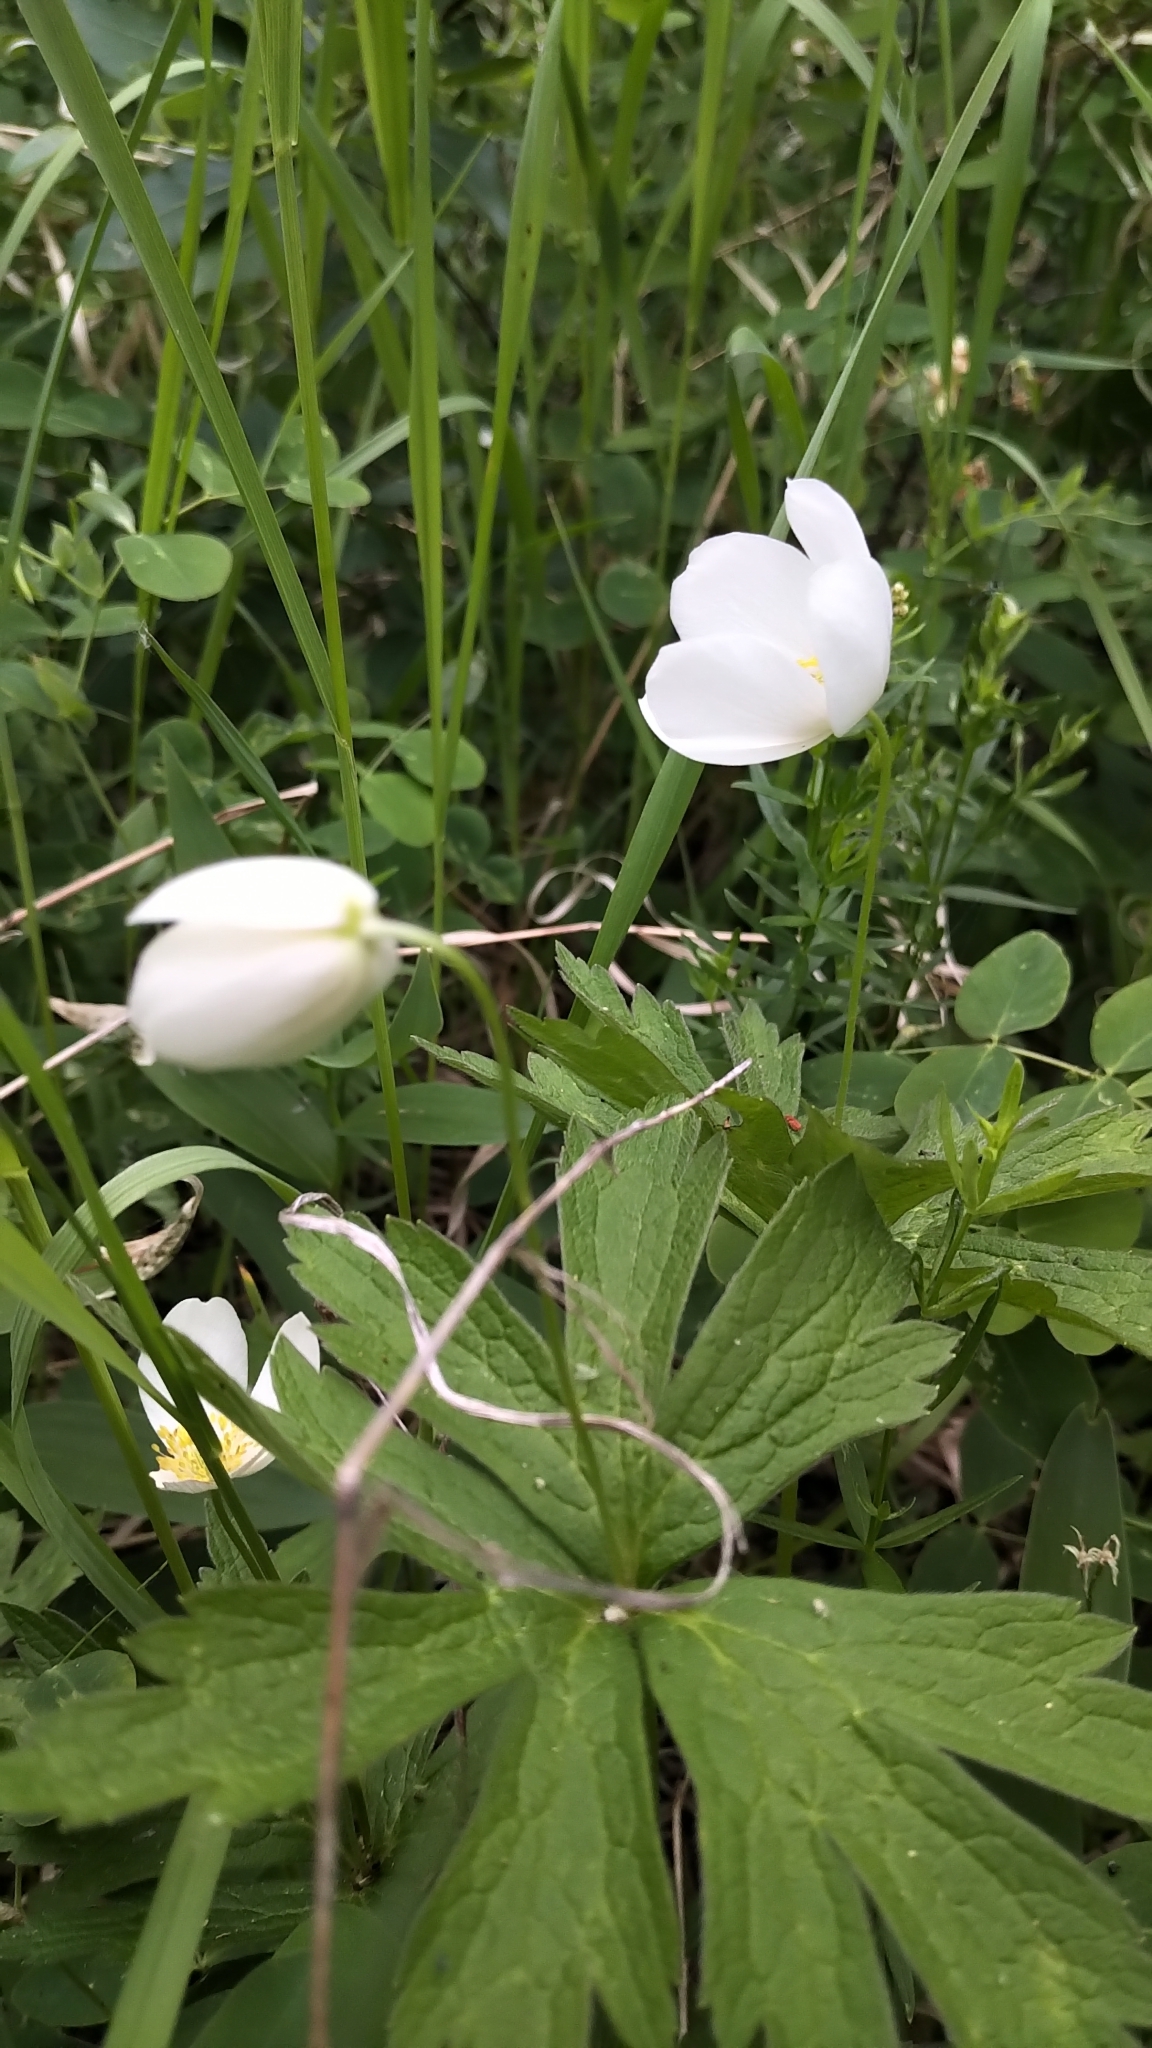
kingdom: Plantae
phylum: Tracheophyta
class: Magnoliopsida
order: Ranunculales
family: Ranunculaceae
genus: Anemonastrum
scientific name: Anemonastrum canadense
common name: Canada anemone
